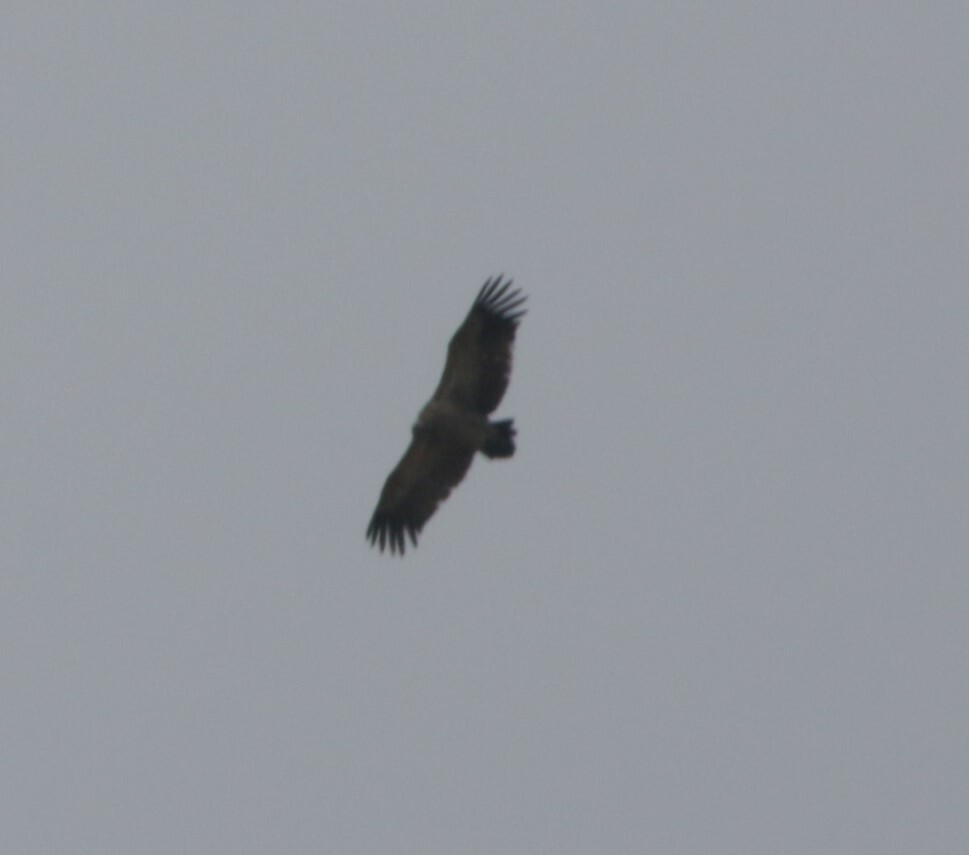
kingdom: Animalia
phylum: Chordata
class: Aves
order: Accipitriformes
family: Accipitridae
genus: Gyps
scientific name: Gyps coprotheres
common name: Cape vulture
